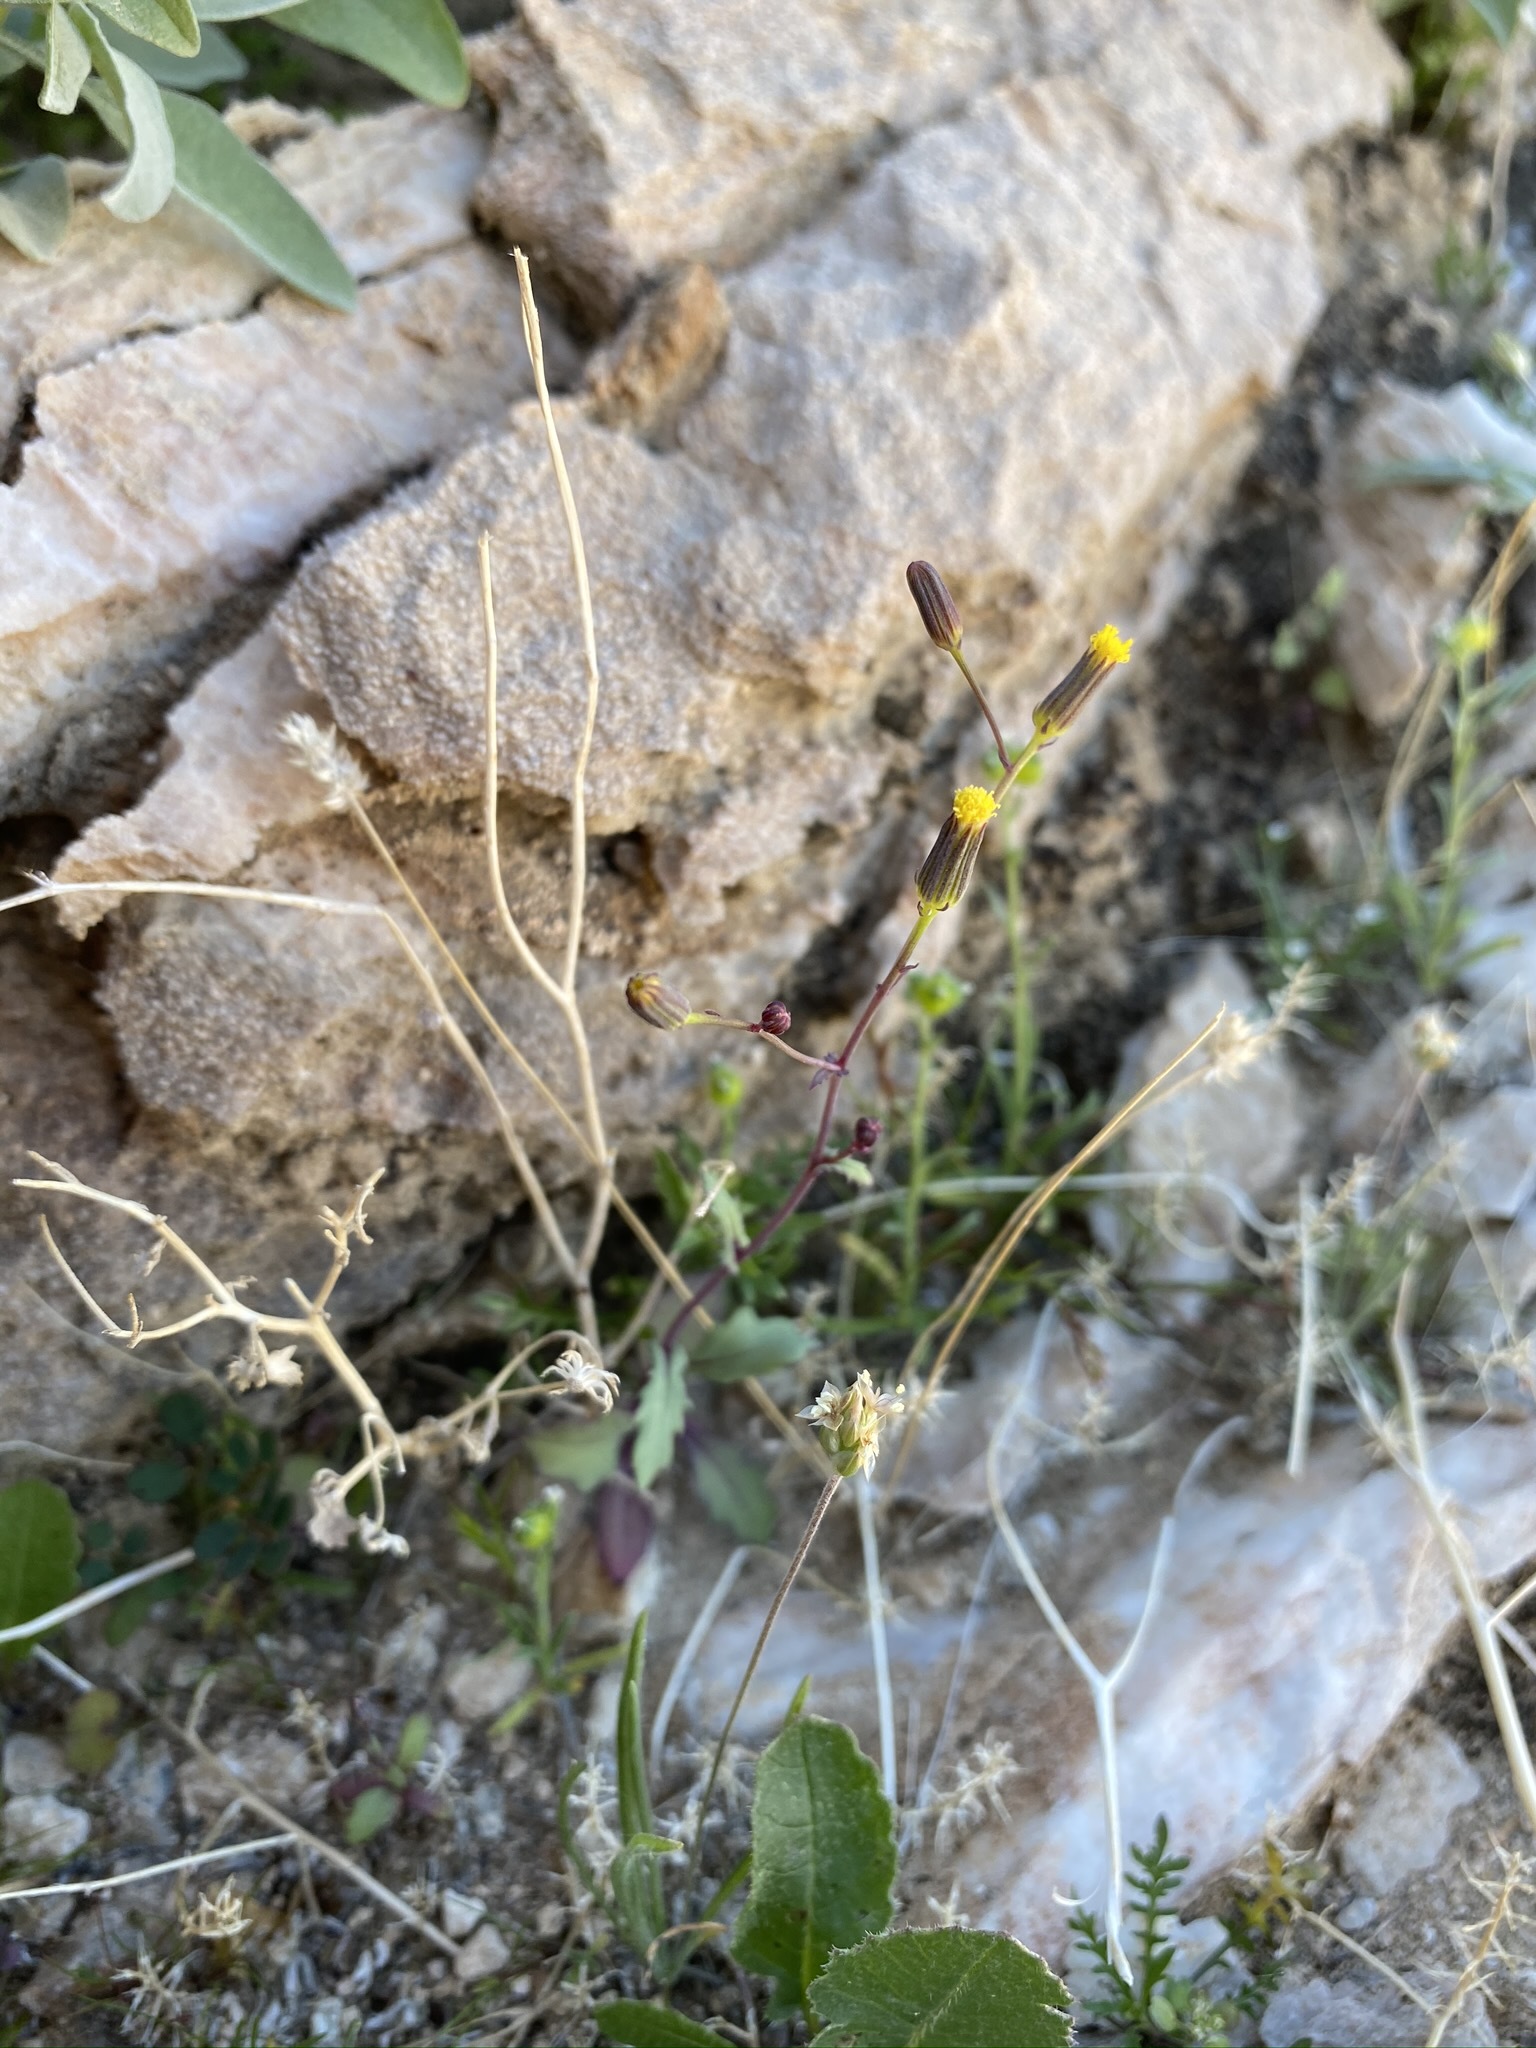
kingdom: Plantae
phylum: Tracheophyta
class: Magnoliopsida
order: Asterales
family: Asteraceae
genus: Senecio
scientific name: Senecio mohavensis
